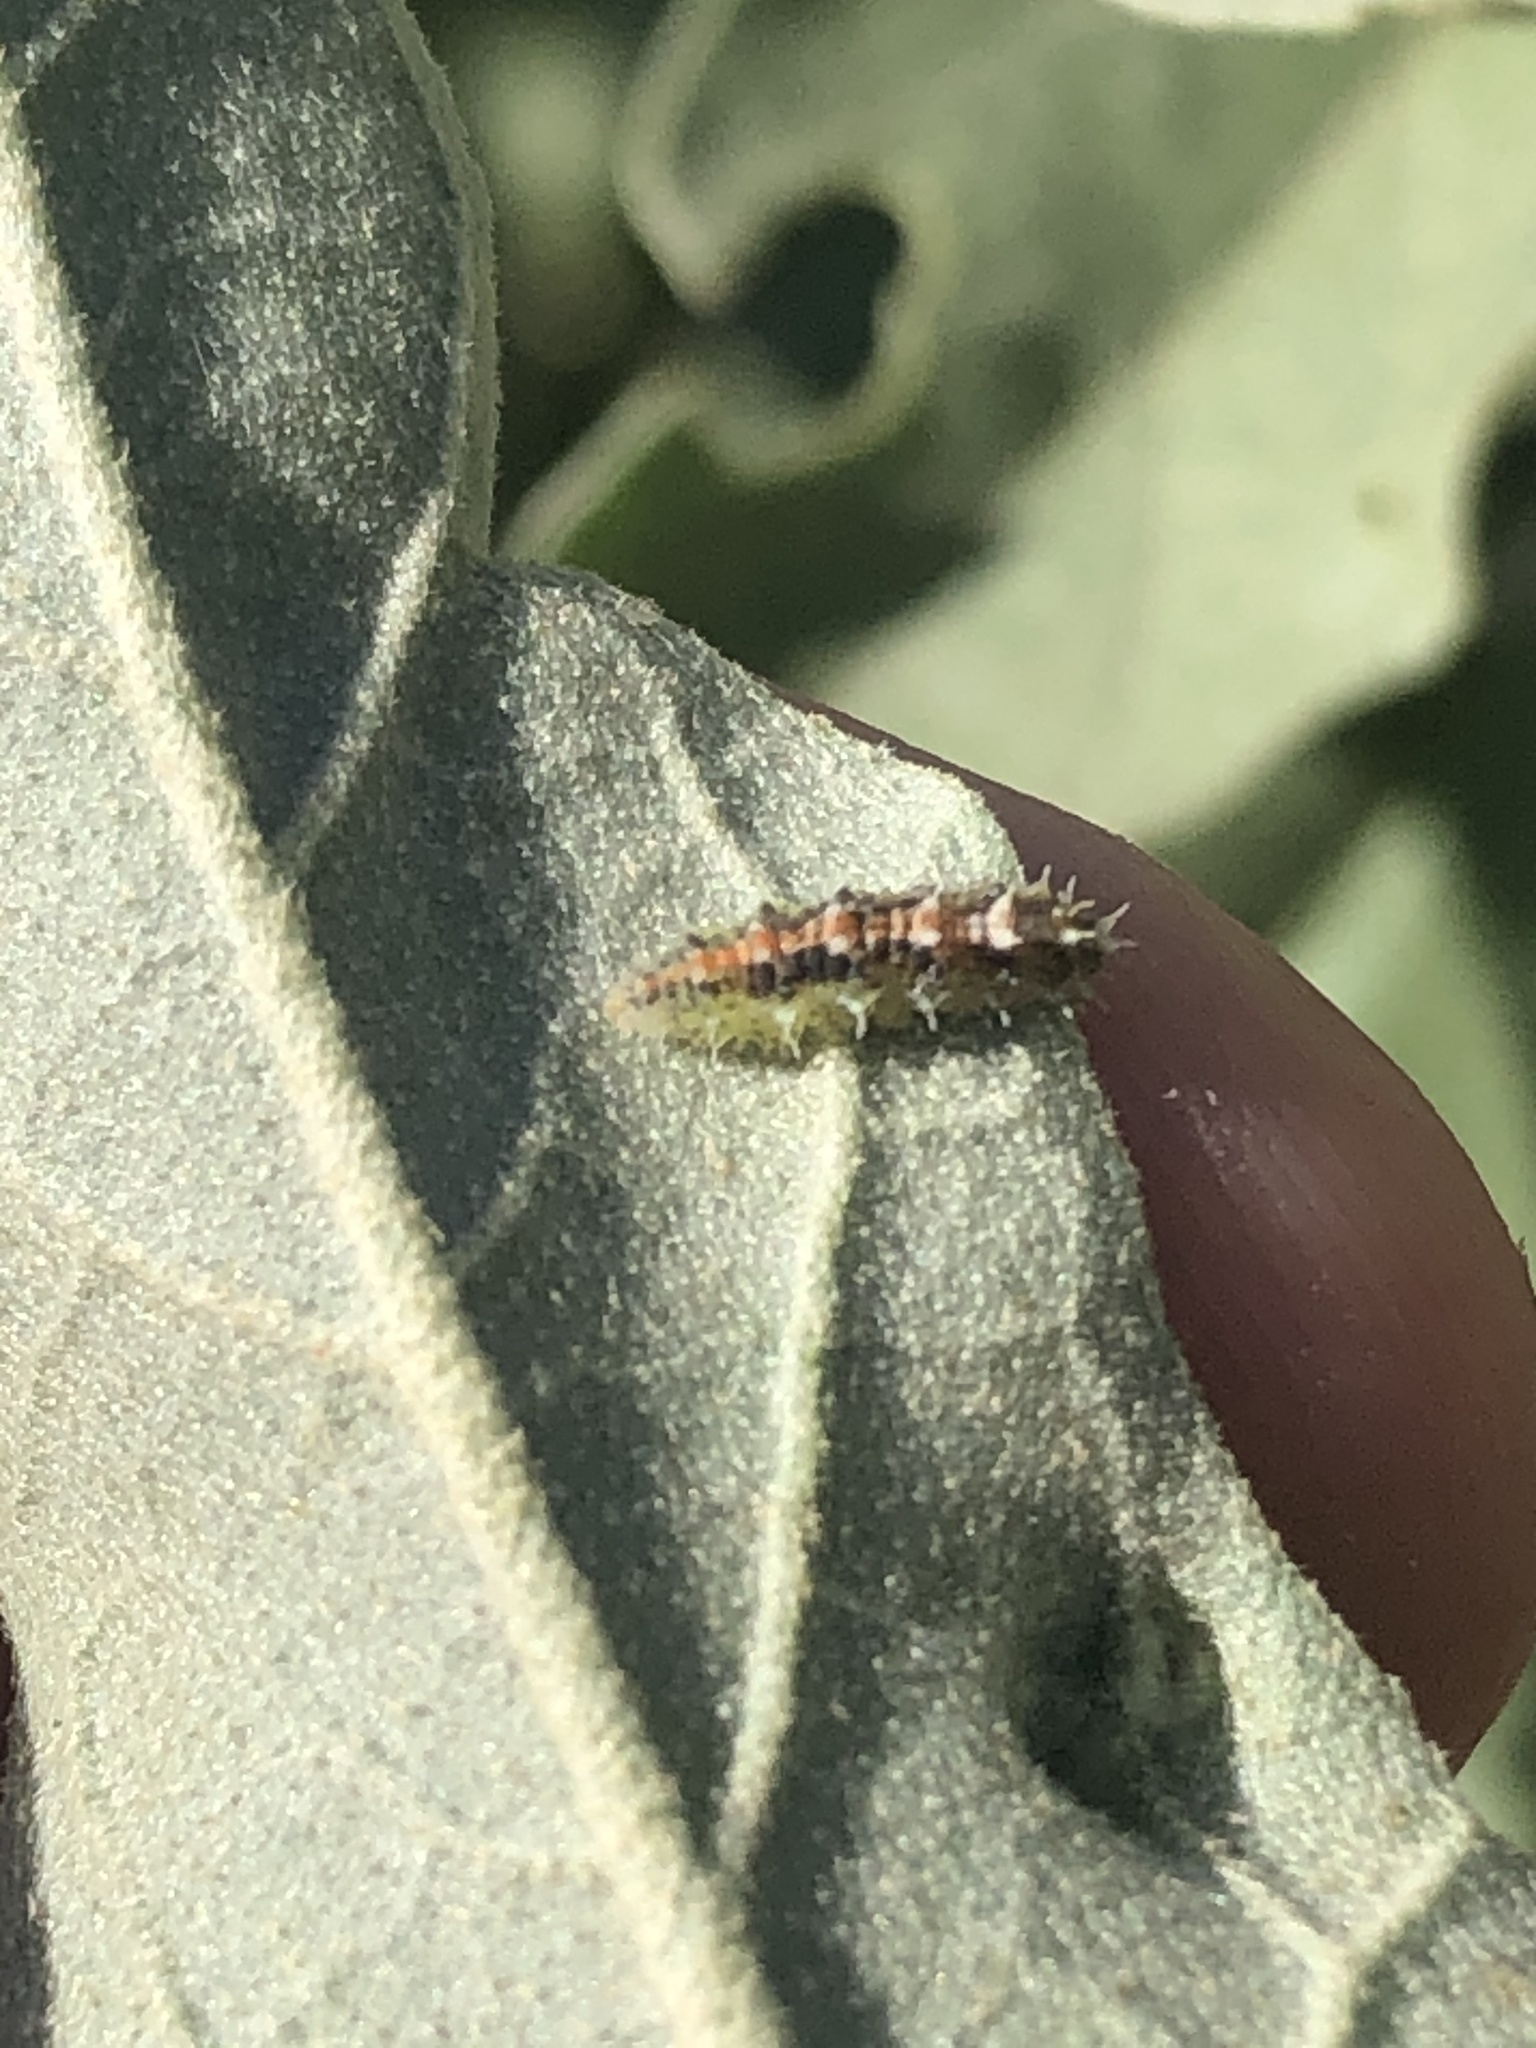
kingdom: Animalia
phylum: Arthropoda
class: Insecta
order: Diptera
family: Syrphidae
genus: Dioprosopa
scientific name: Dioprosopa clavatus
